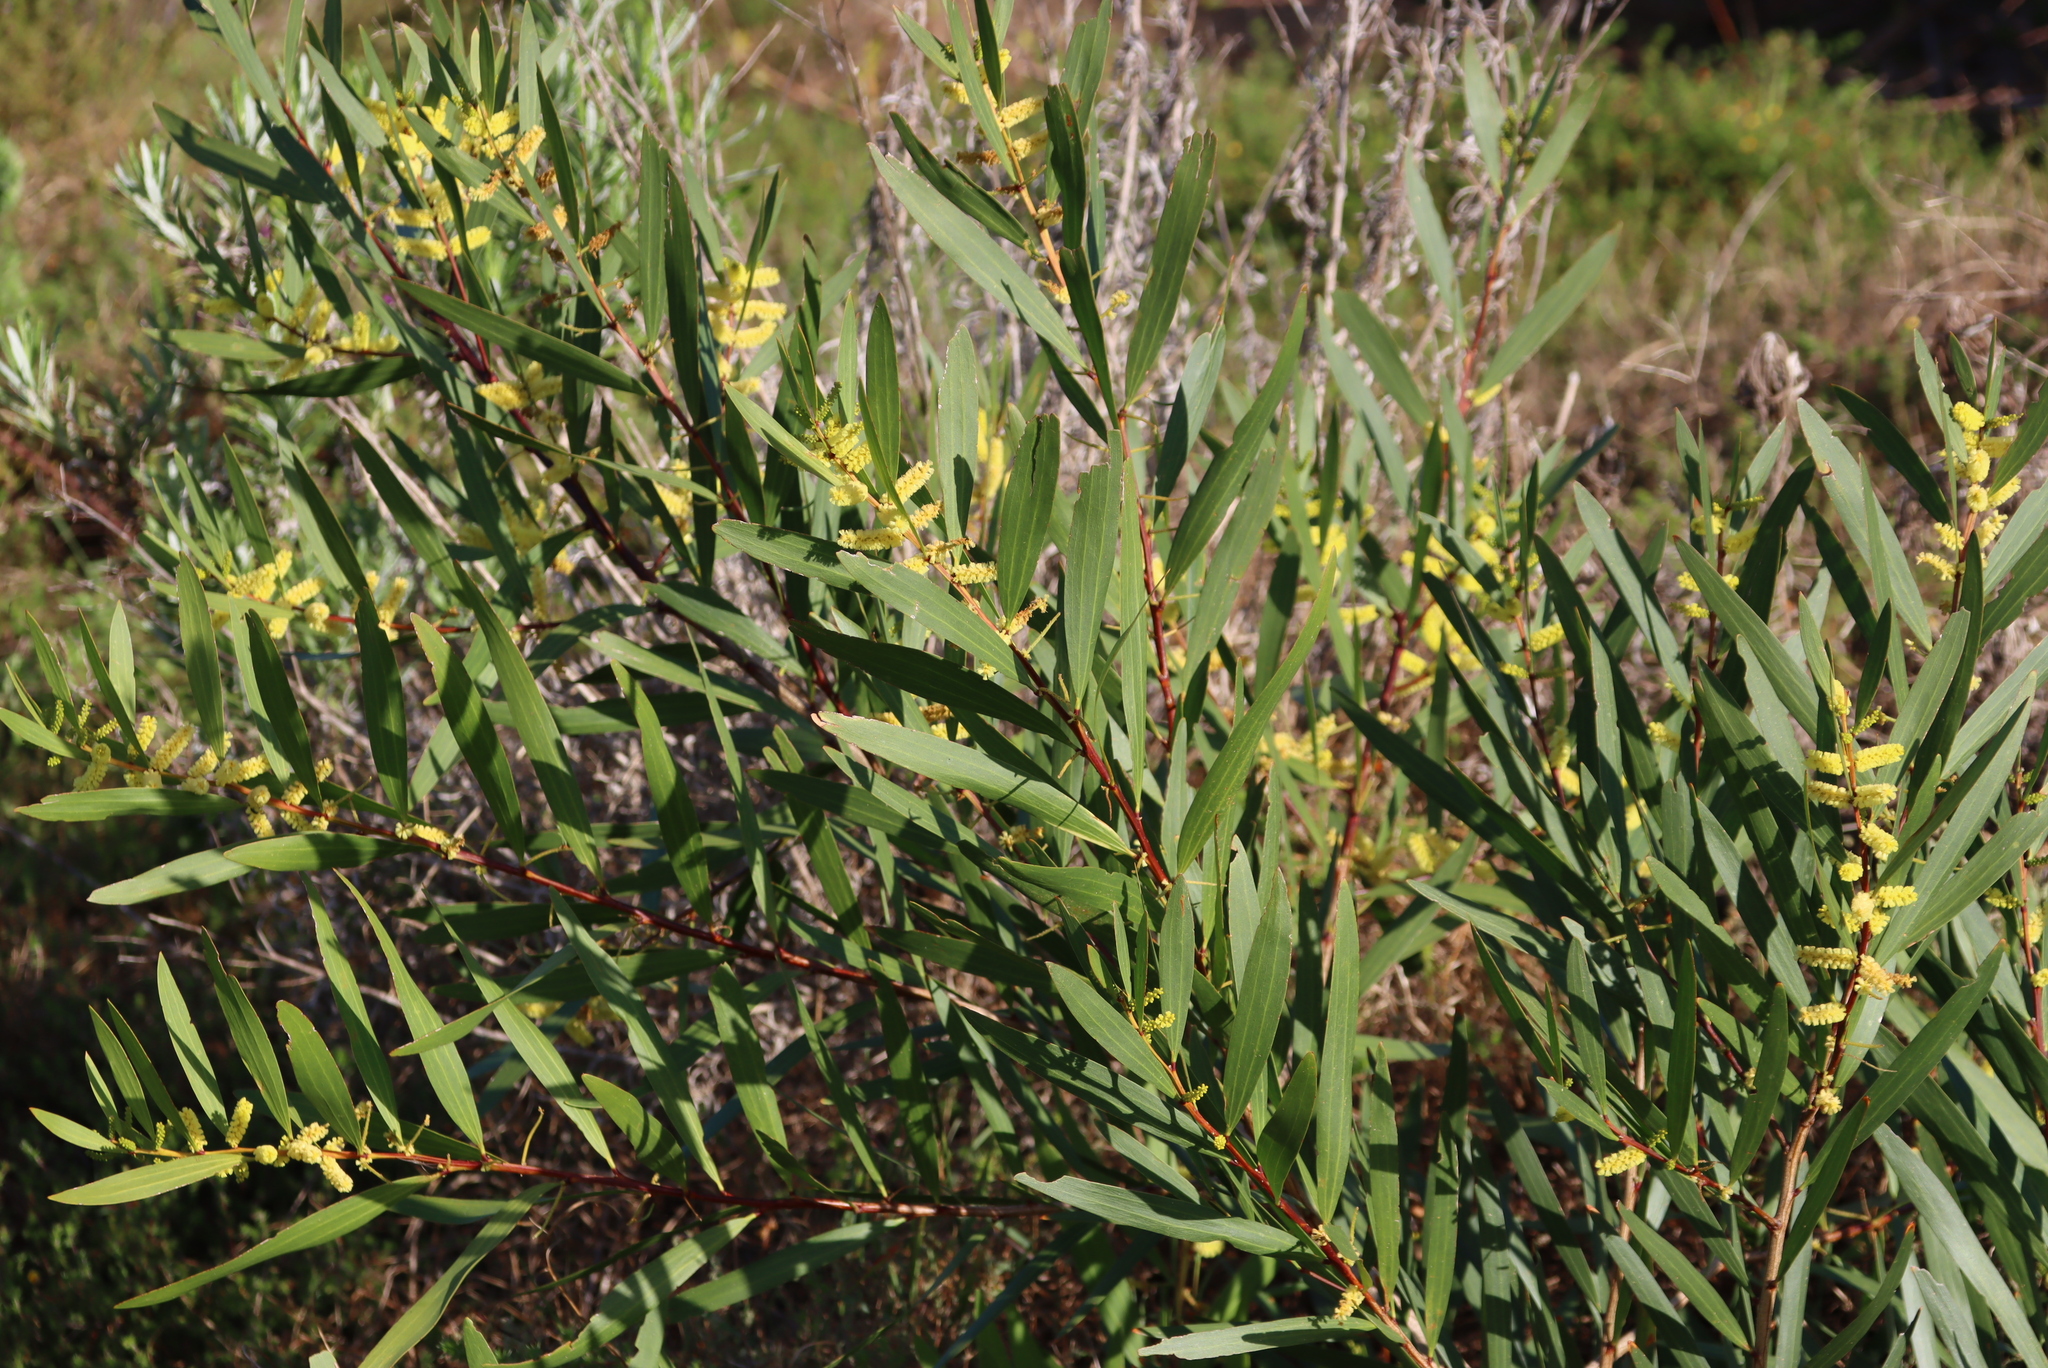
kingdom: Plantae
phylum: Tracheophyta
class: Magnoliopsida
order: Fabales
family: Fabaceae
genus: Acacia
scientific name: Acacia longifolia
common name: Sydney golden wattle
